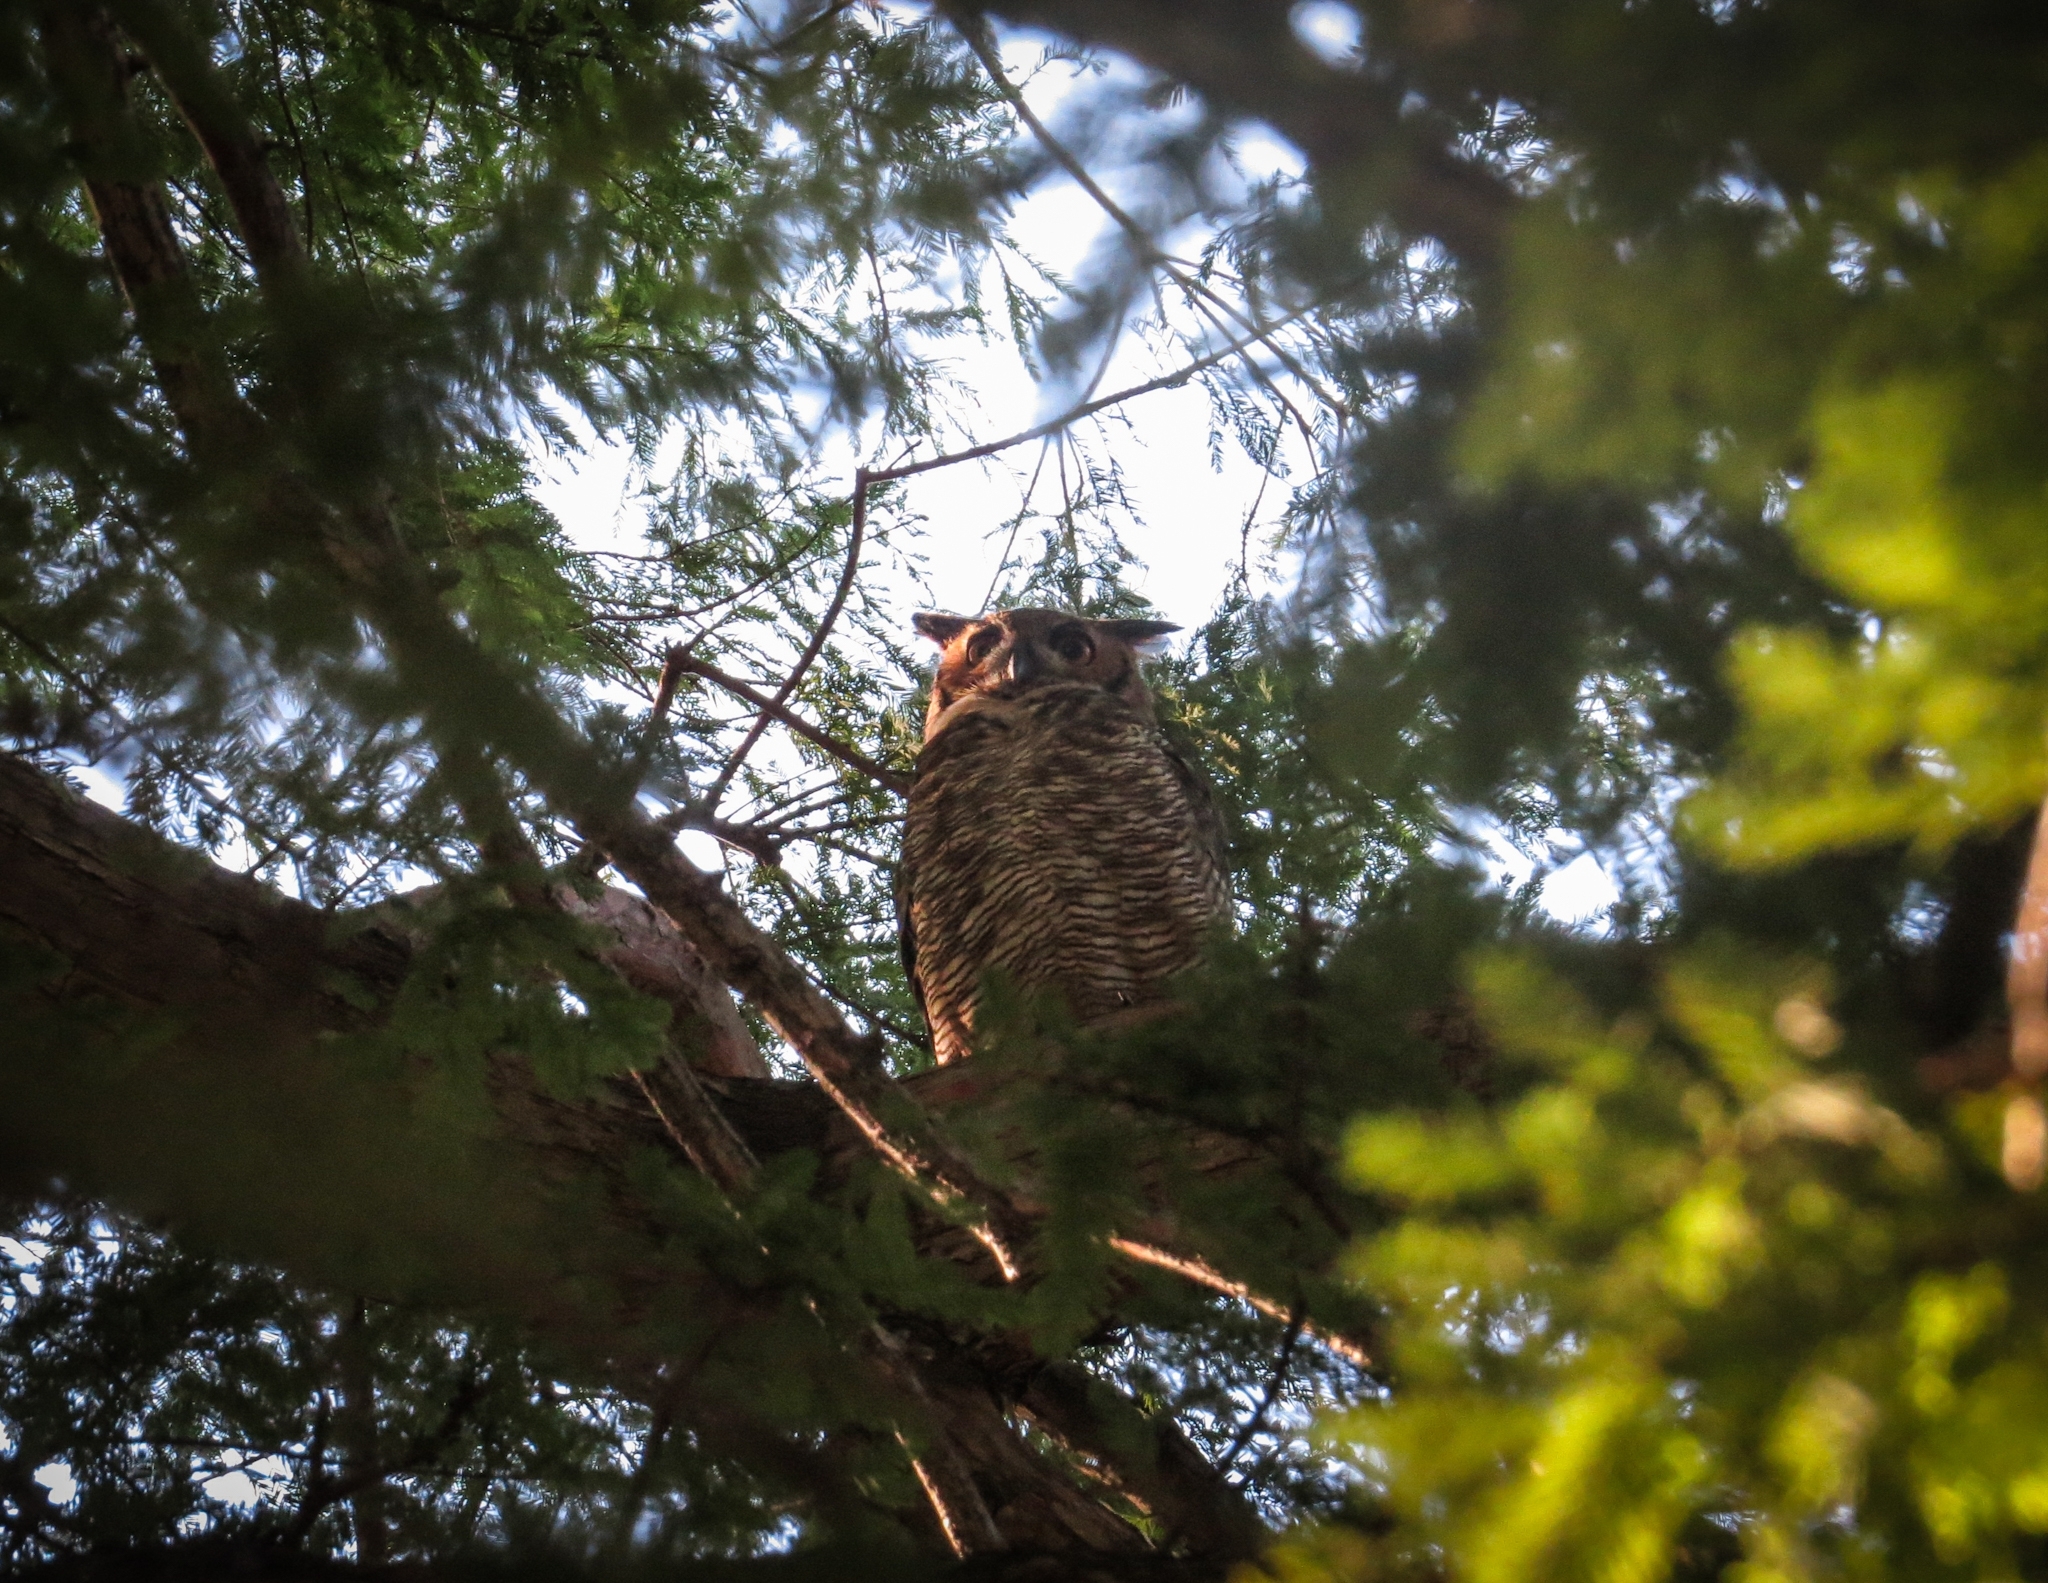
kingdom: Animalia
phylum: Chordata
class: Aves
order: Strigiformes
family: Strigidae
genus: Bubo
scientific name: Bubo virginianus
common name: Great horned owl
